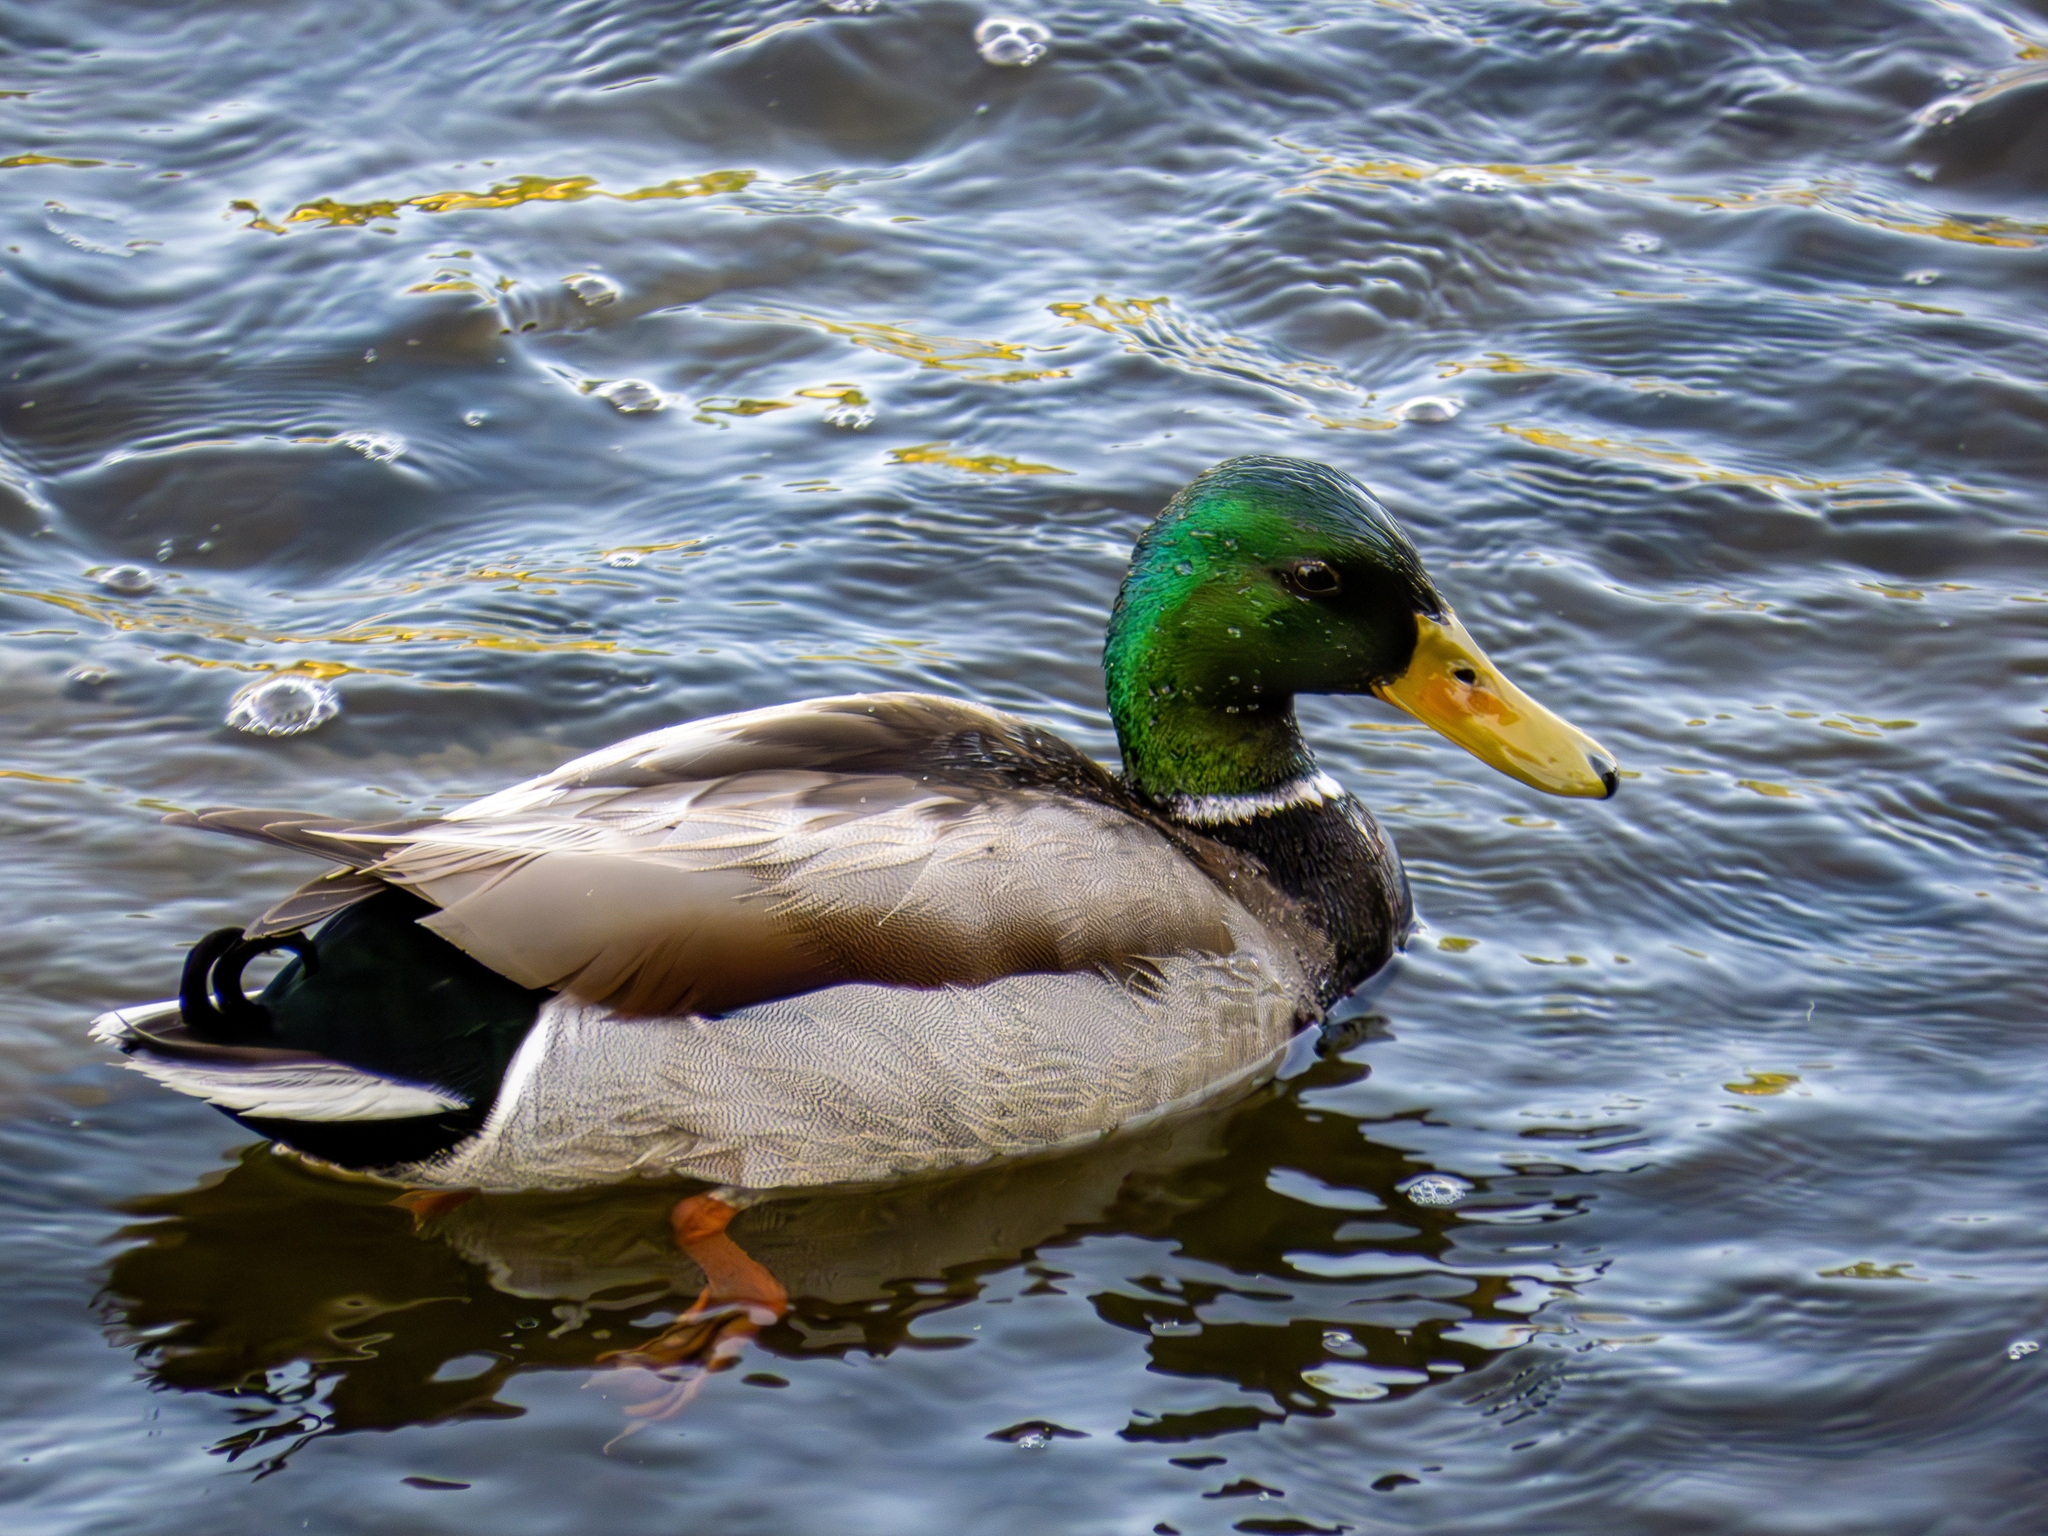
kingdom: Animalia
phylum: Chordata
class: Aves
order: Anseriformes
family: Anatidae
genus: Anas
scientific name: Anas platyrhynchos
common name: Mallard
